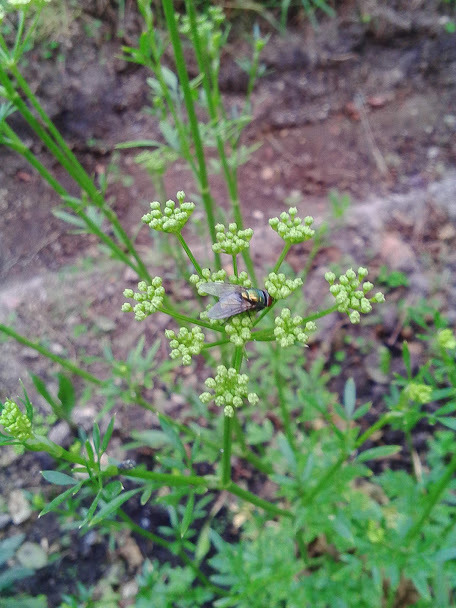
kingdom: Animalia
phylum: Arthropoda
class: Insecta
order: Diptera
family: Calliphoridae
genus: Lucilia
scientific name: Lucilia
